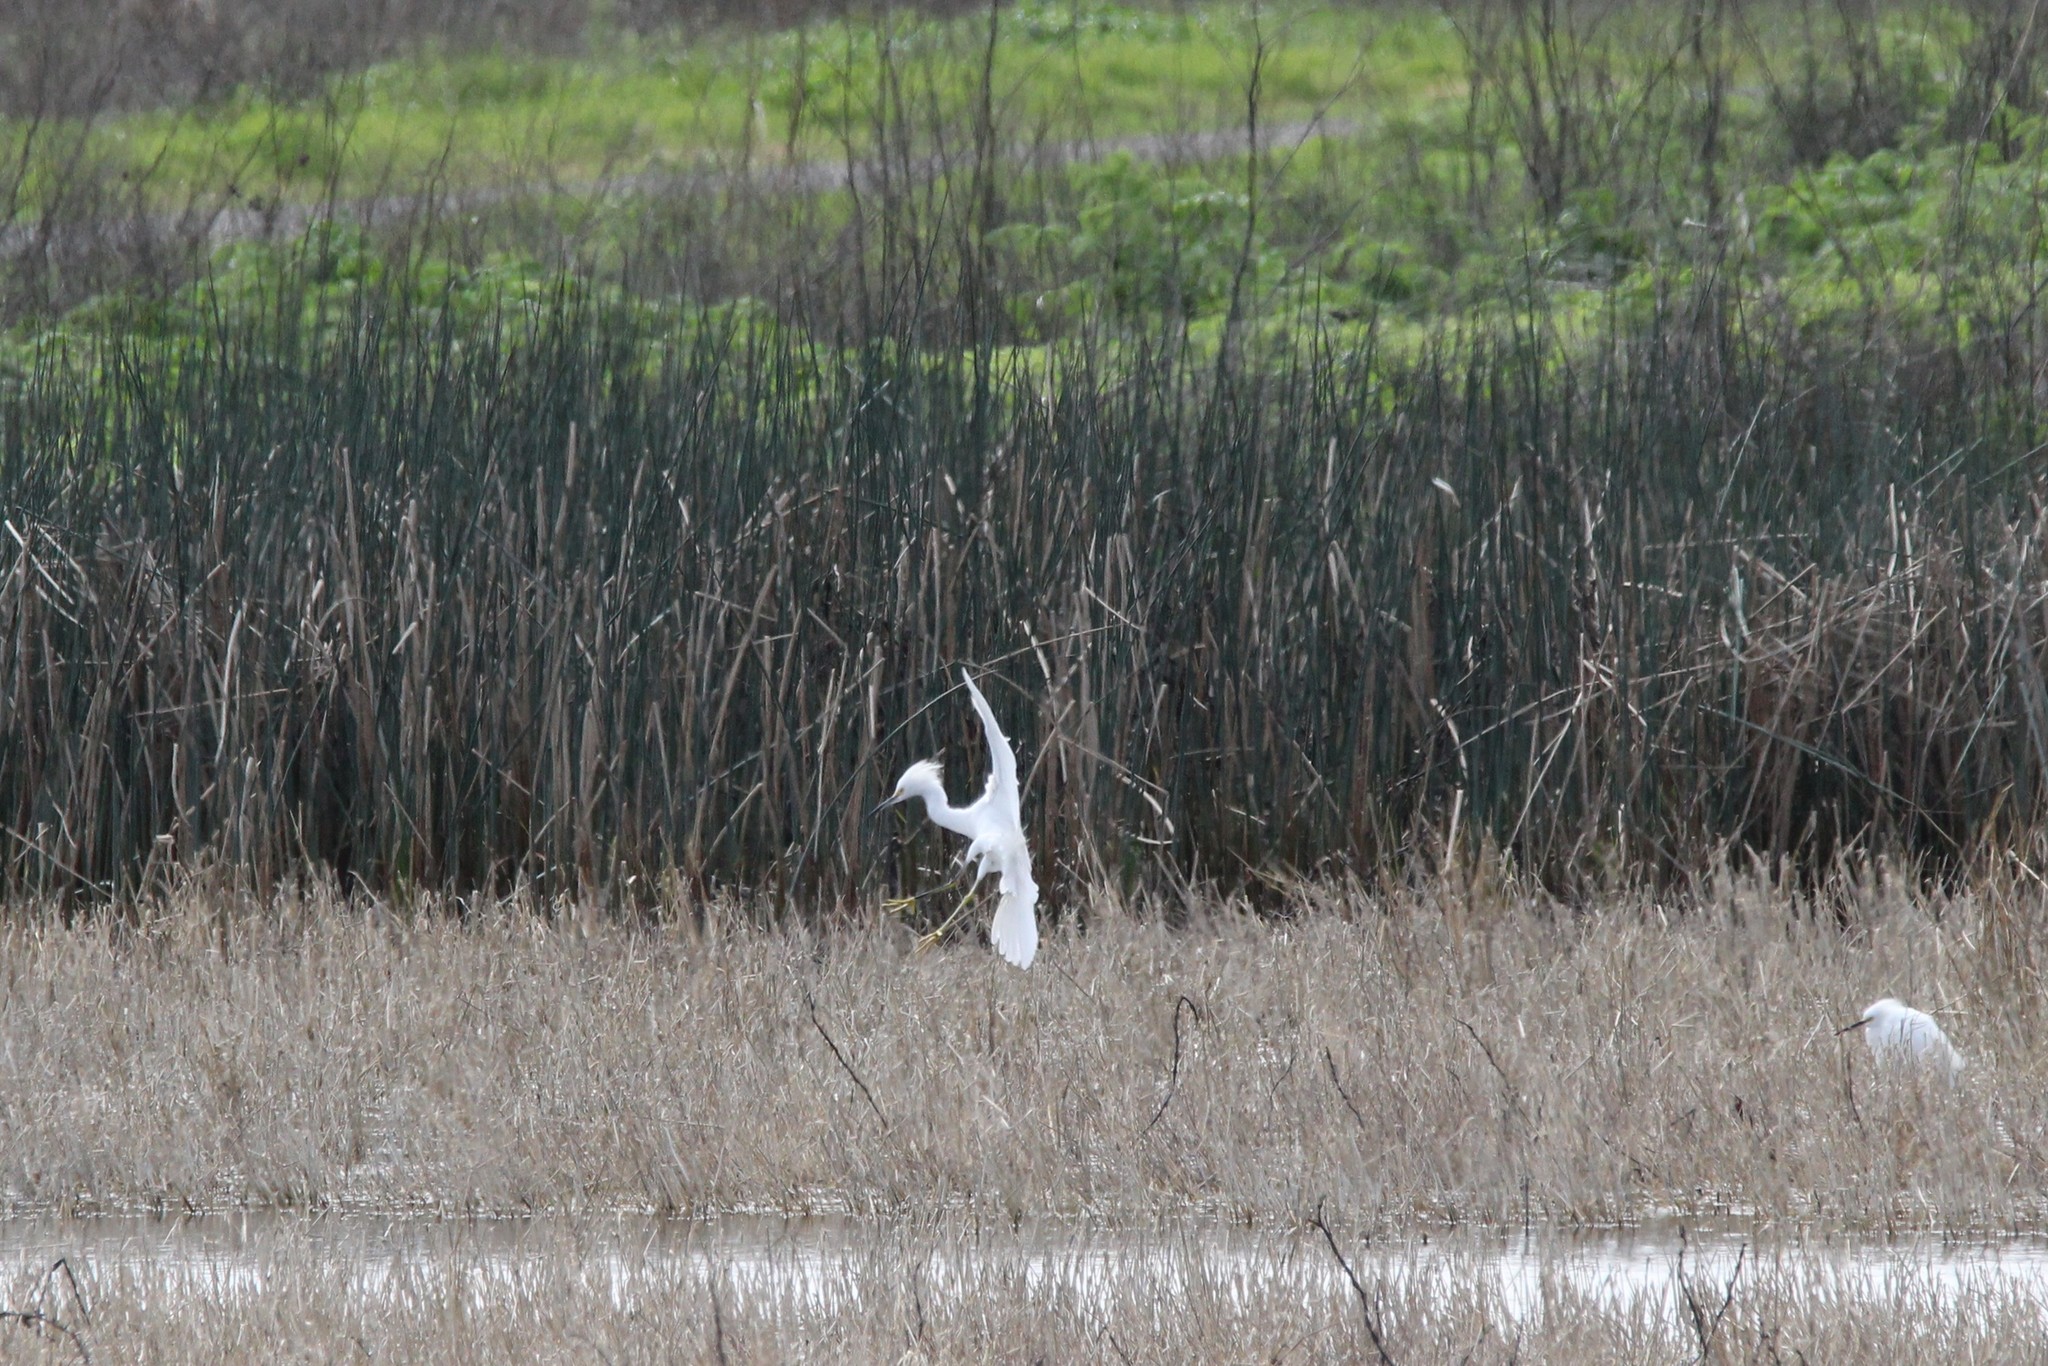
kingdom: Animalia
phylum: Chordata
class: Aves
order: Pelecaniformes
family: Ardeidae
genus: Egretta
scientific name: Egretta thula
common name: Snowy egret
